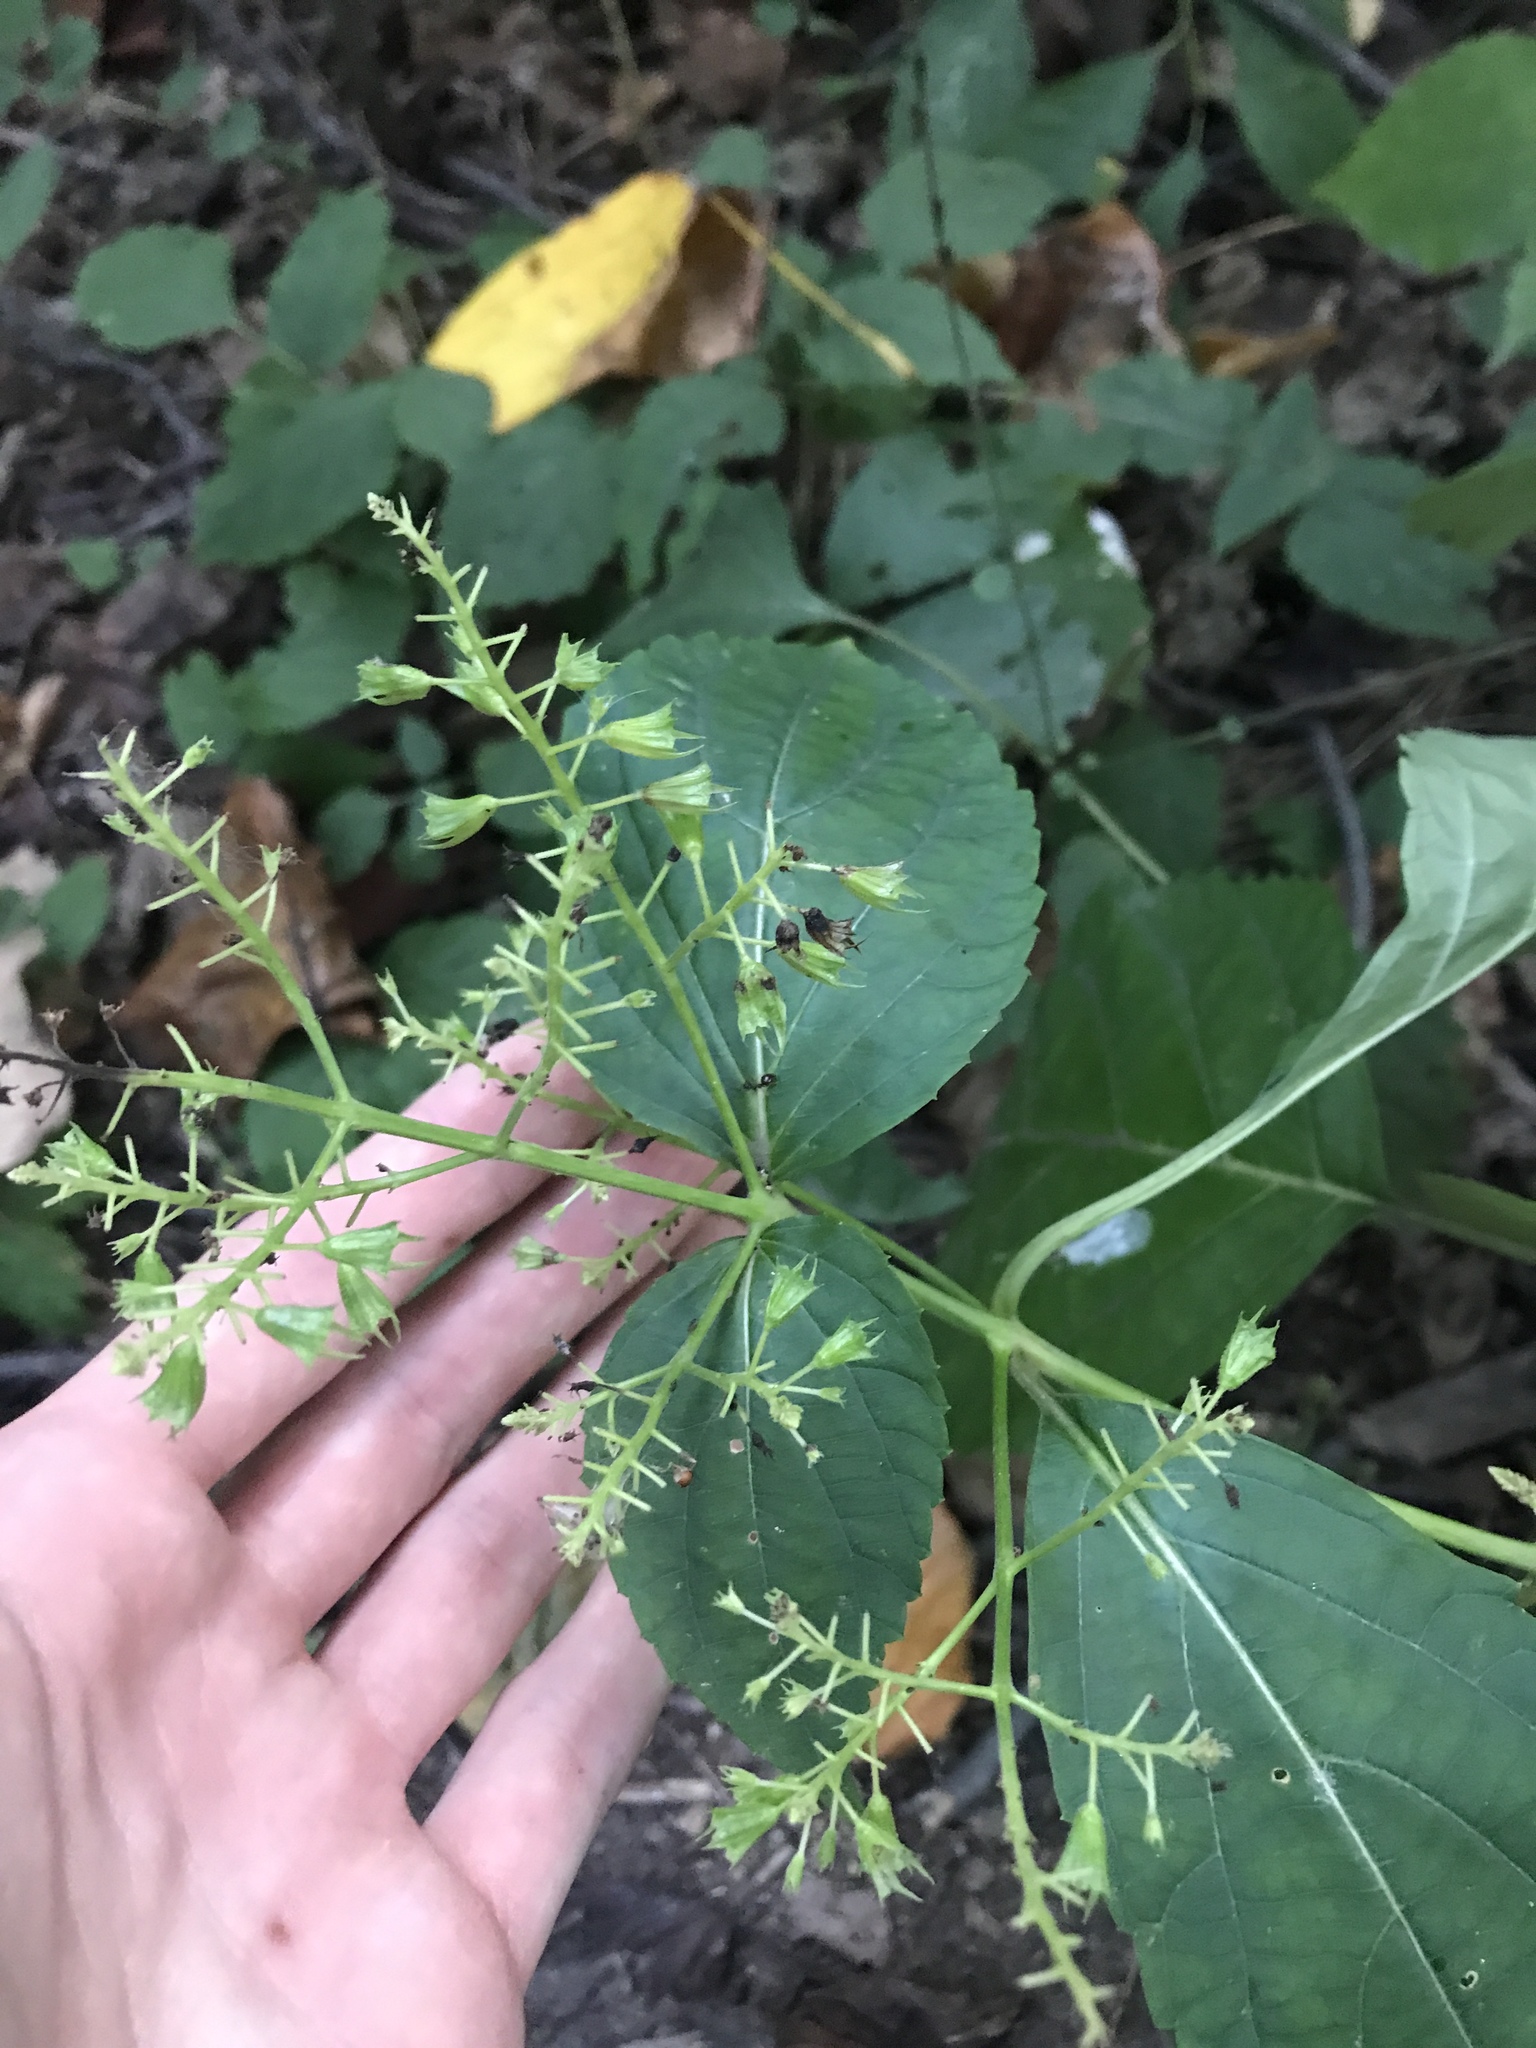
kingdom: Plantae
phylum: Tracheophyta
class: Magnoliopsida
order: Lamiales
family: Lamiaceae
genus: Collinsonia
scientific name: Collinsonia canadensis
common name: Northern horsebalm
